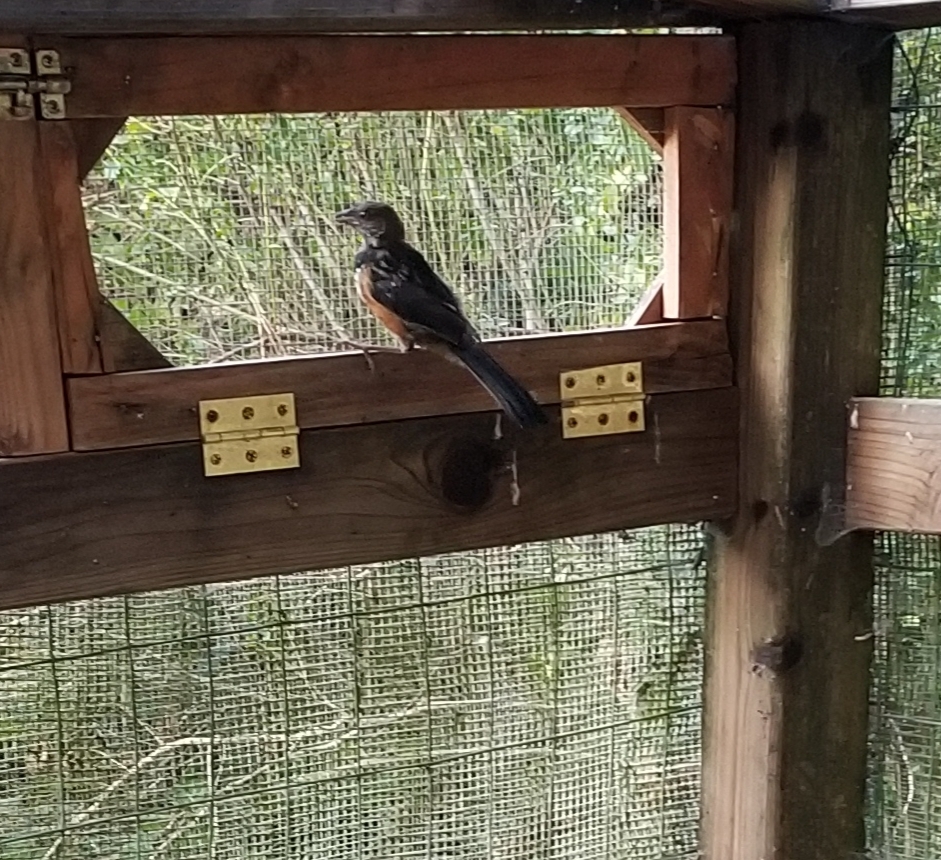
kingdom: Animalia
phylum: Chordata
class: Aves
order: Passeriformes
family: Passerellidae
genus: Pipilo
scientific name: Pipilo maculatus
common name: Spotted towhee
